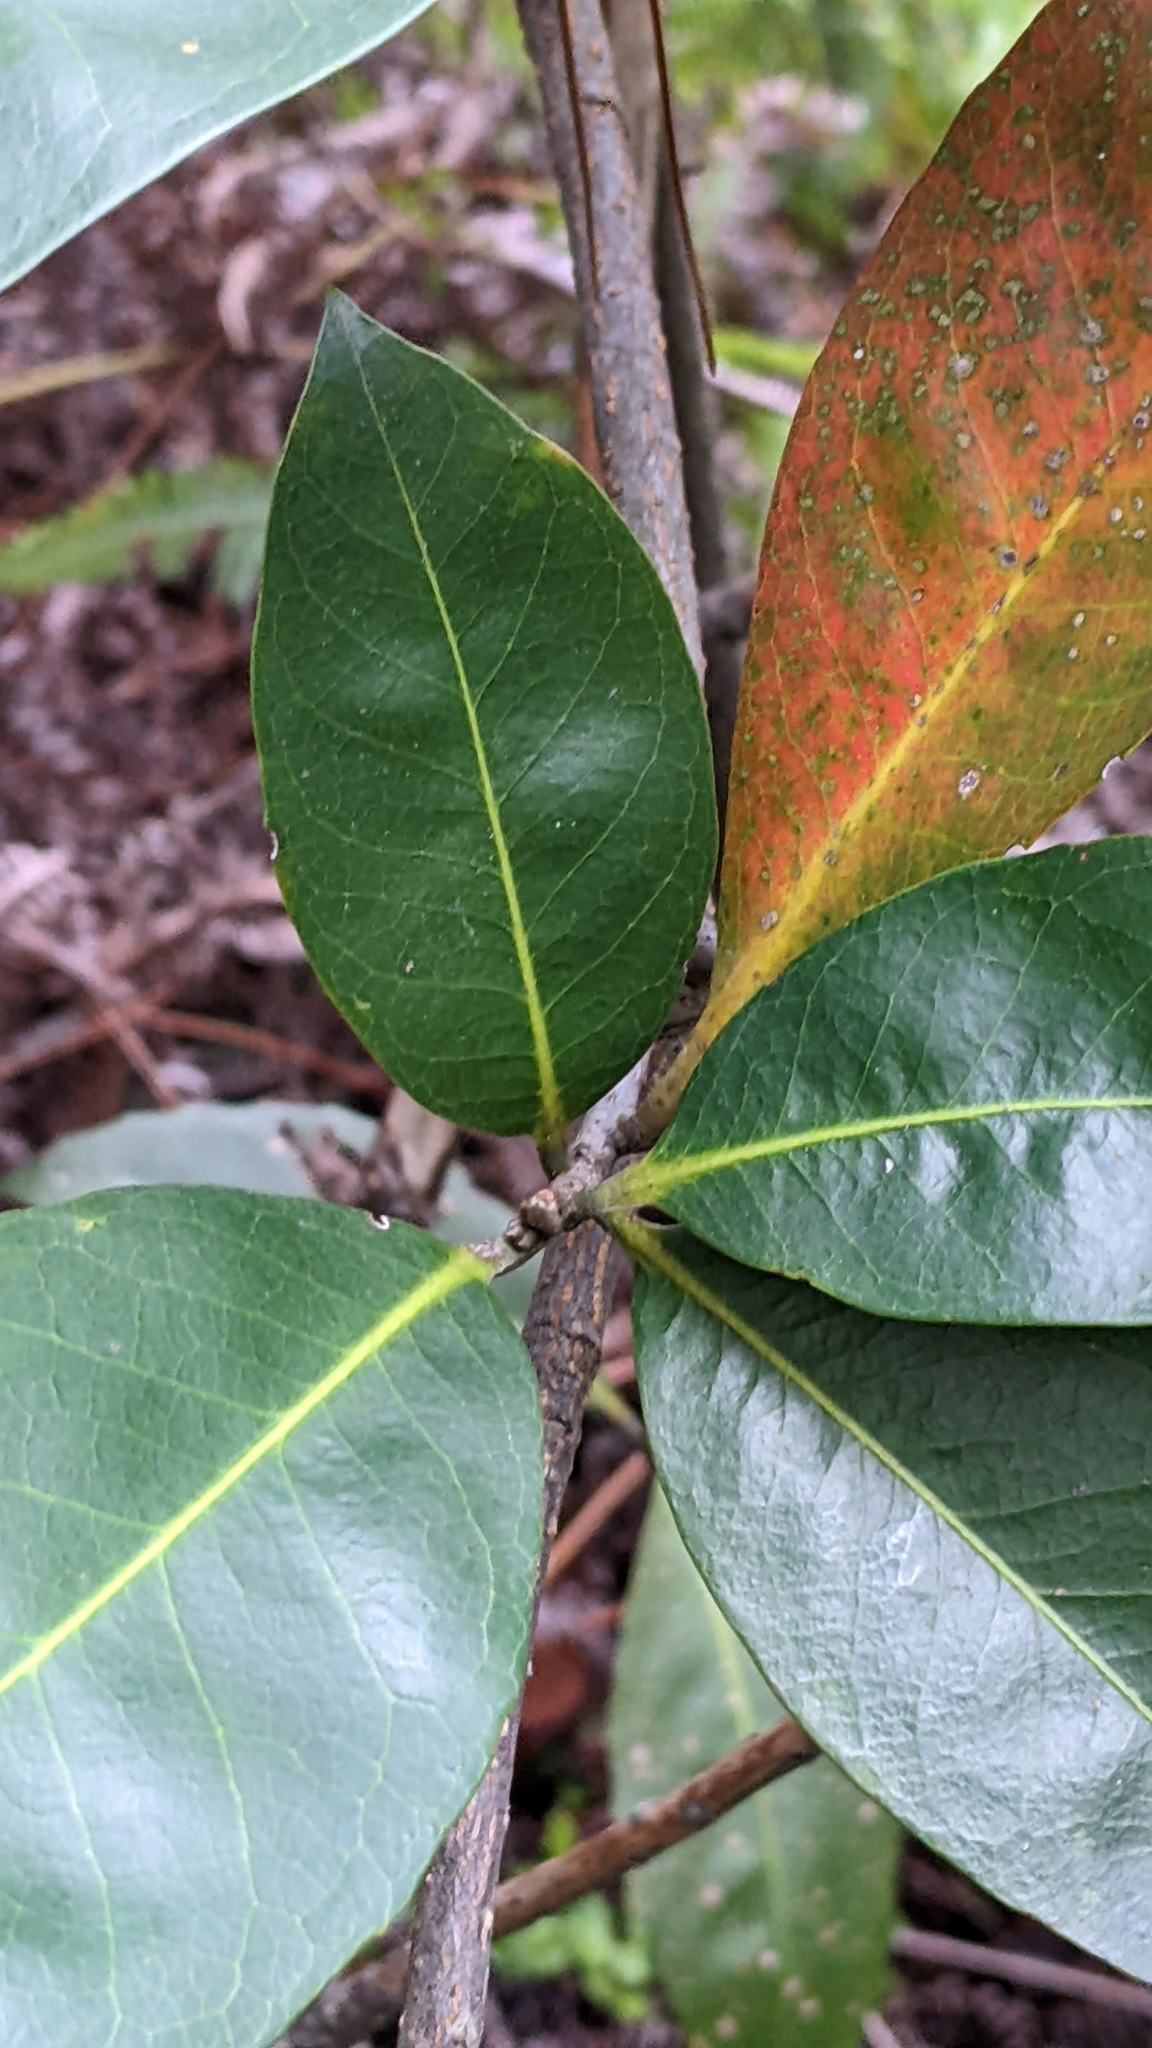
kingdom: Plantae
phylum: Tracheophyta
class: Magnoliopsida
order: Ericales
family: Theaceae
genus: Schima
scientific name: Schima superba
